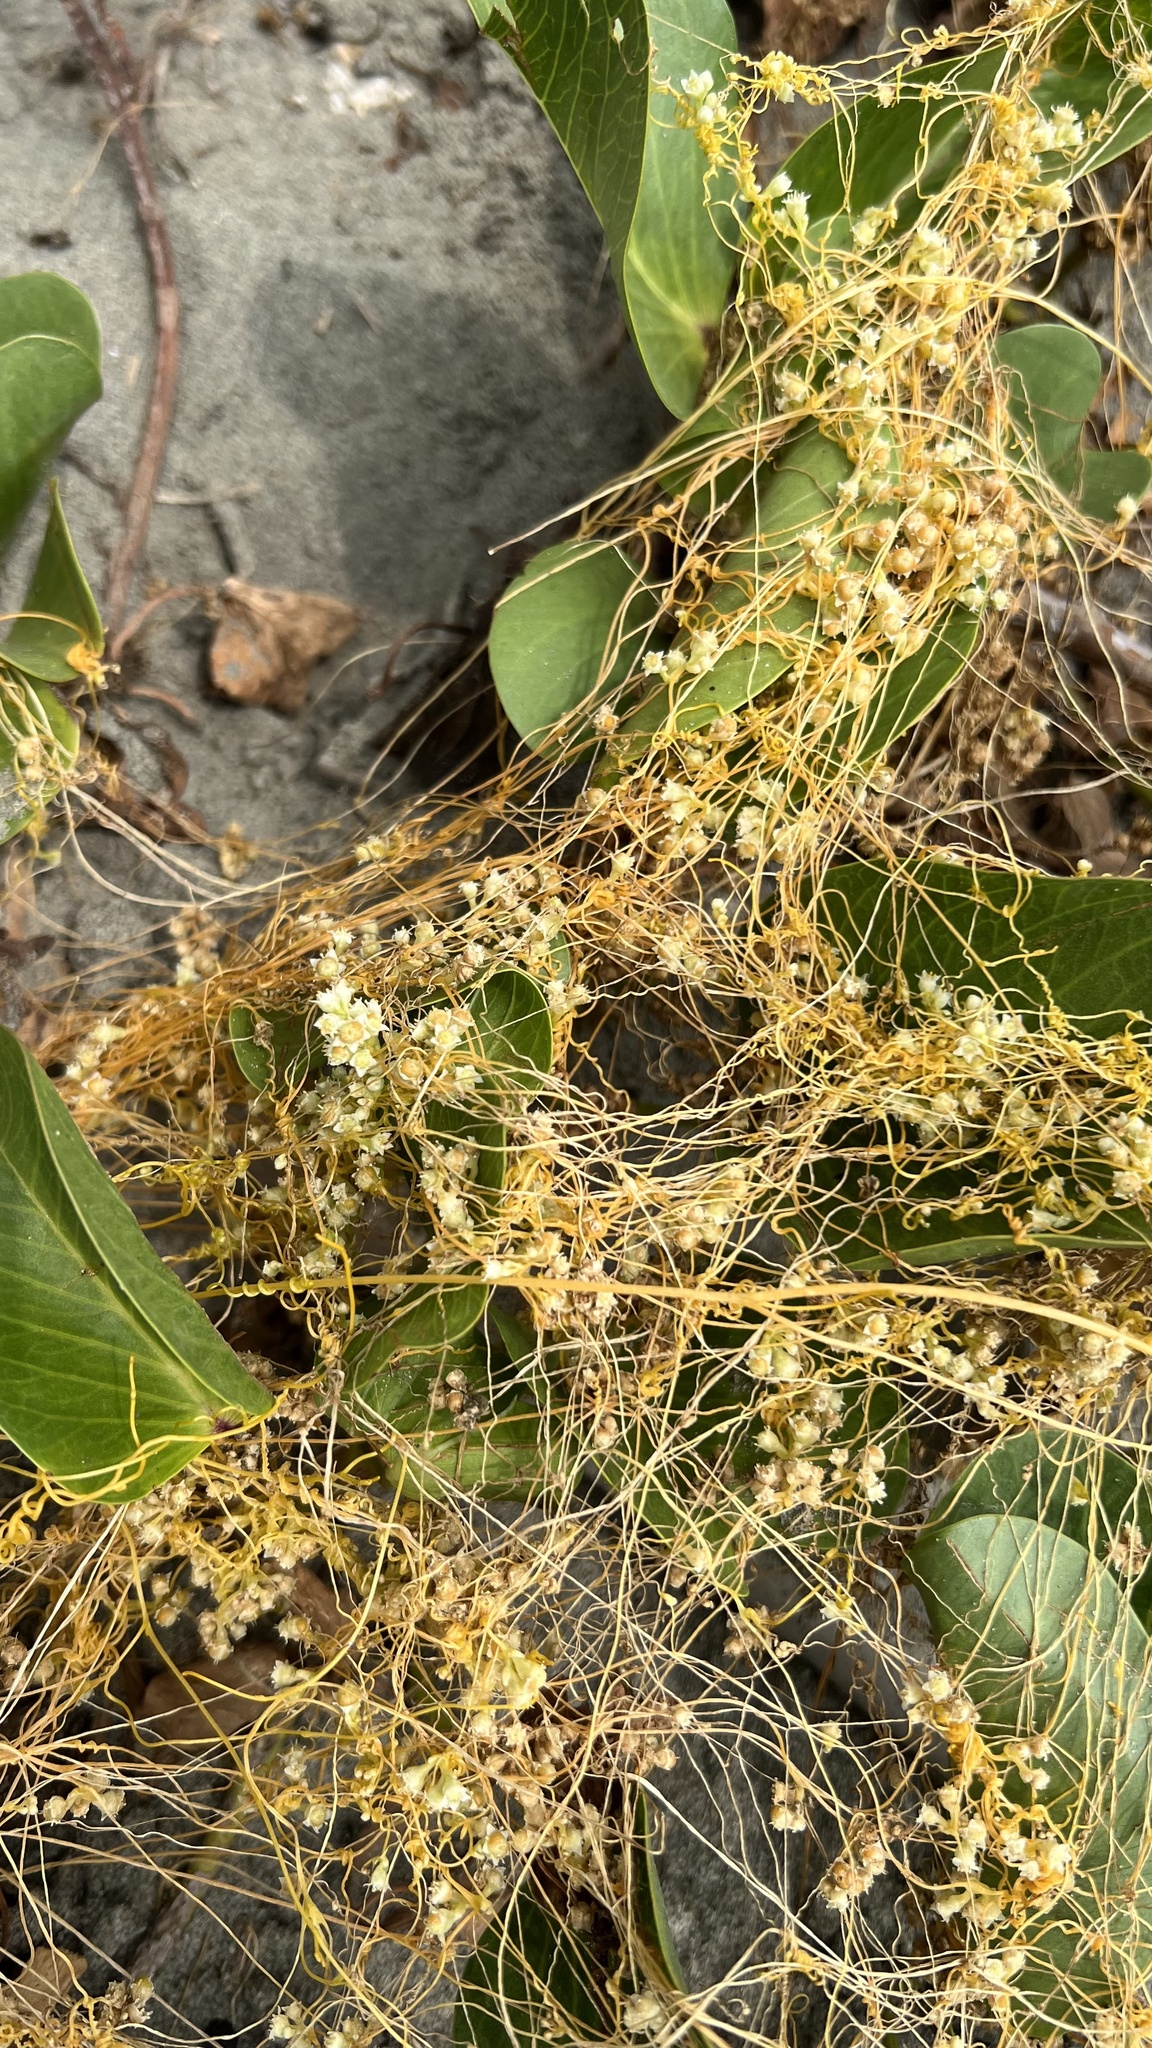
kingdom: Plantae
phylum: Tracheophyta
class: Magnoliopsida
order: Solanales
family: Convolvulaceae
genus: Cuscuta
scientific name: Cuscuta campestris
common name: Yellow dodder
